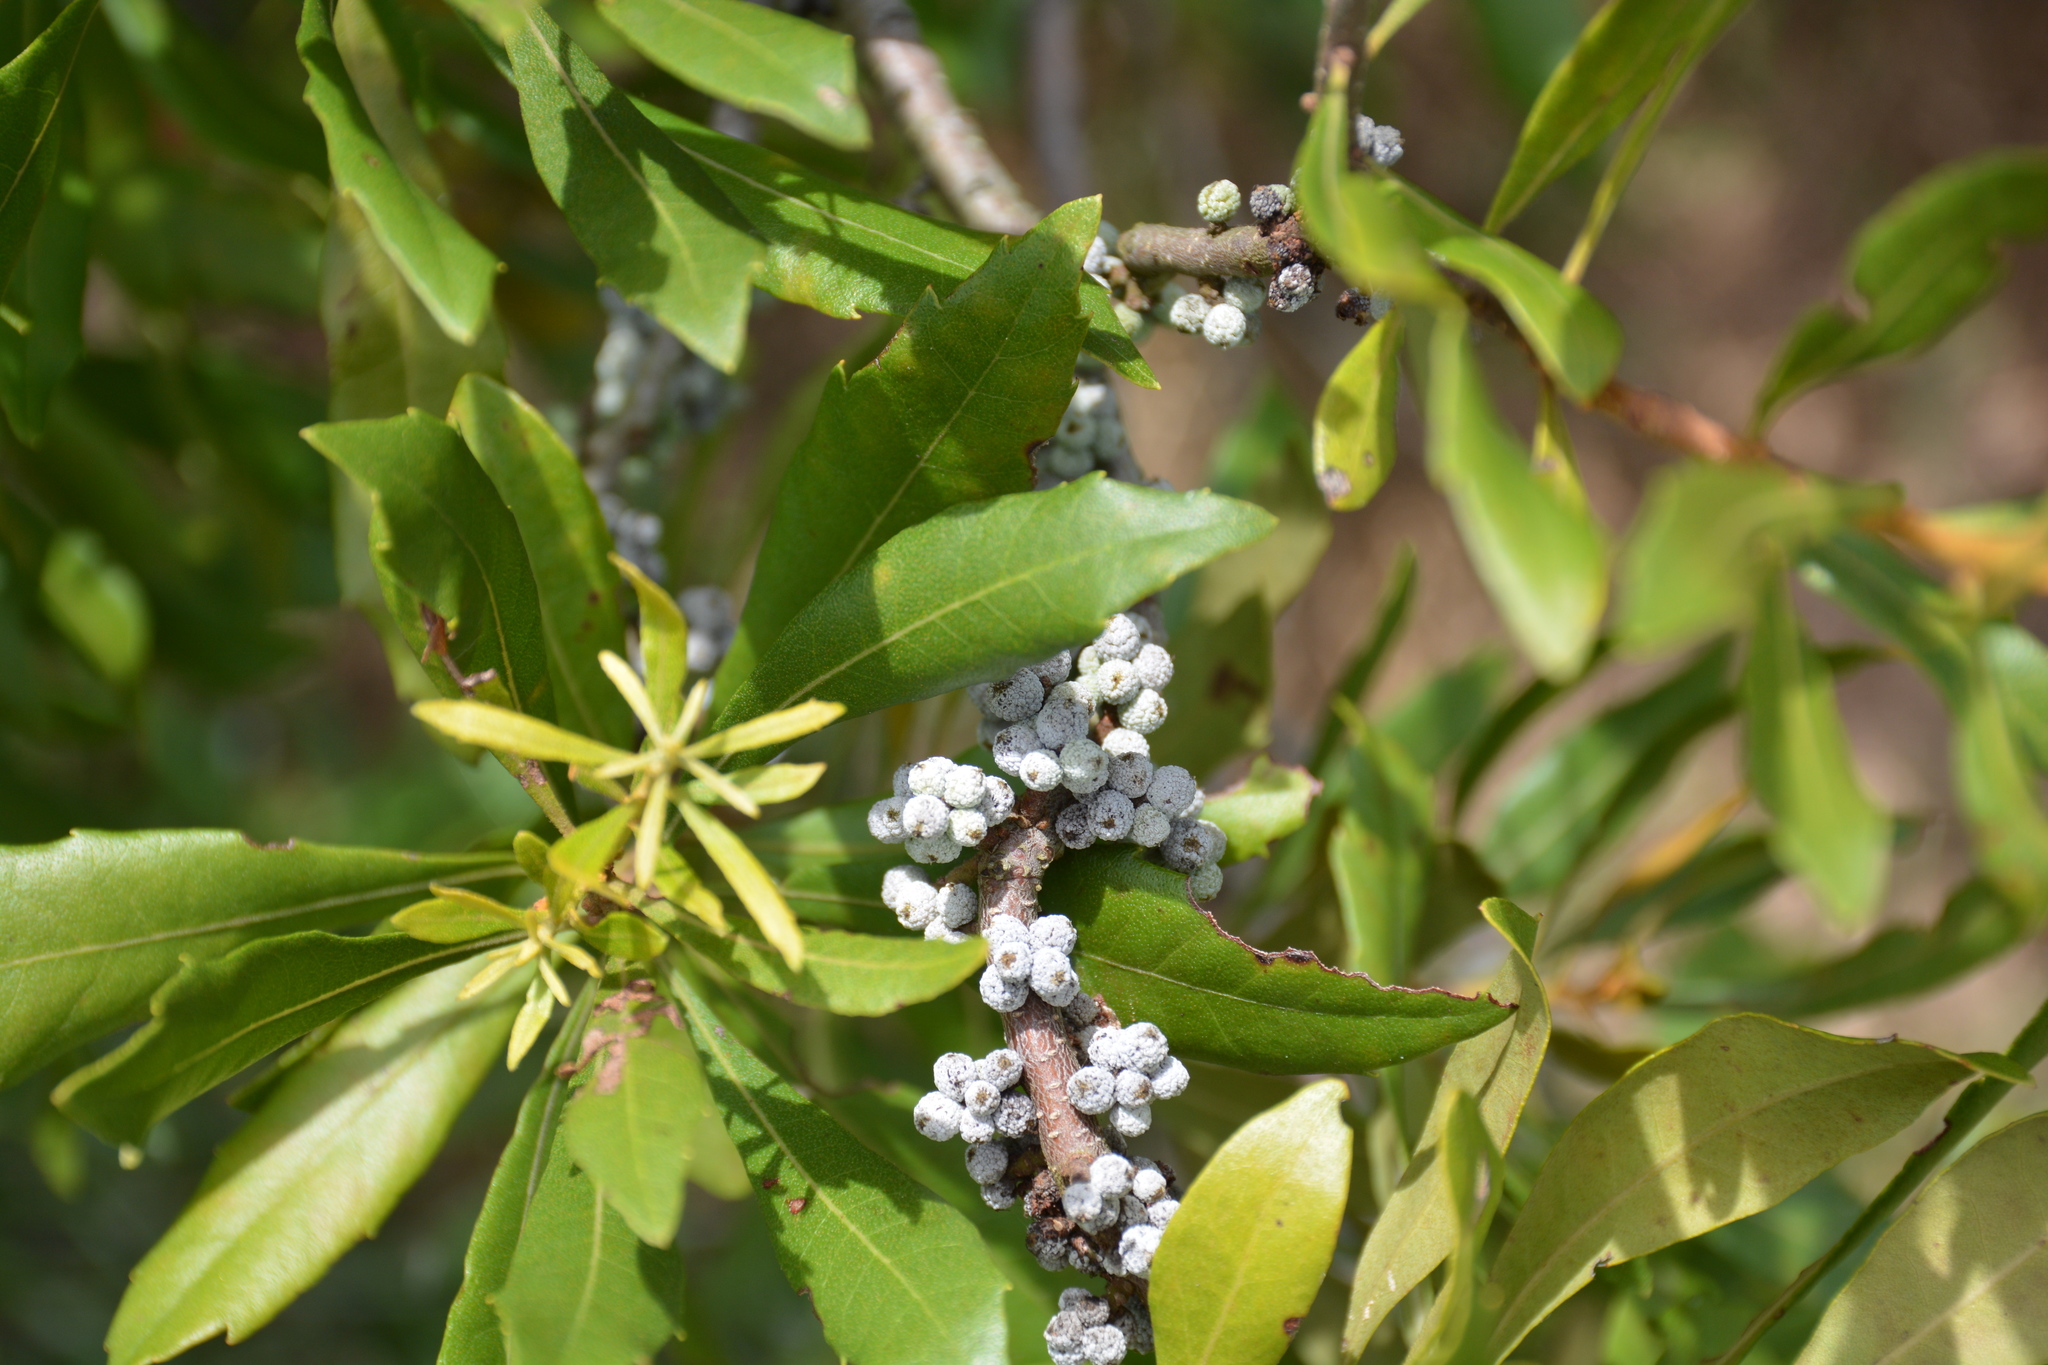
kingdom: Plantae
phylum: Tracheophyta
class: Magnoliopsida
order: Fagales
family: Myricaceae
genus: Morella
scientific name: Morella cerifera
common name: Wax myrtle
